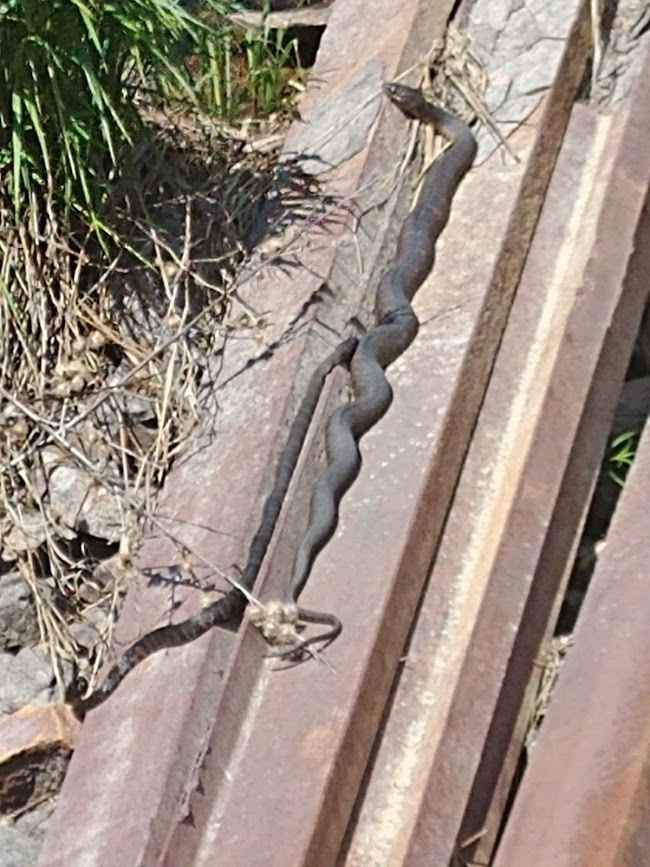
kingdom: Animalia
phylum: Chordata
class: Squamata
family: Colubridae
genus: Nerodia
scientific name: Nerodia sipedon
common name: Northern water snake
